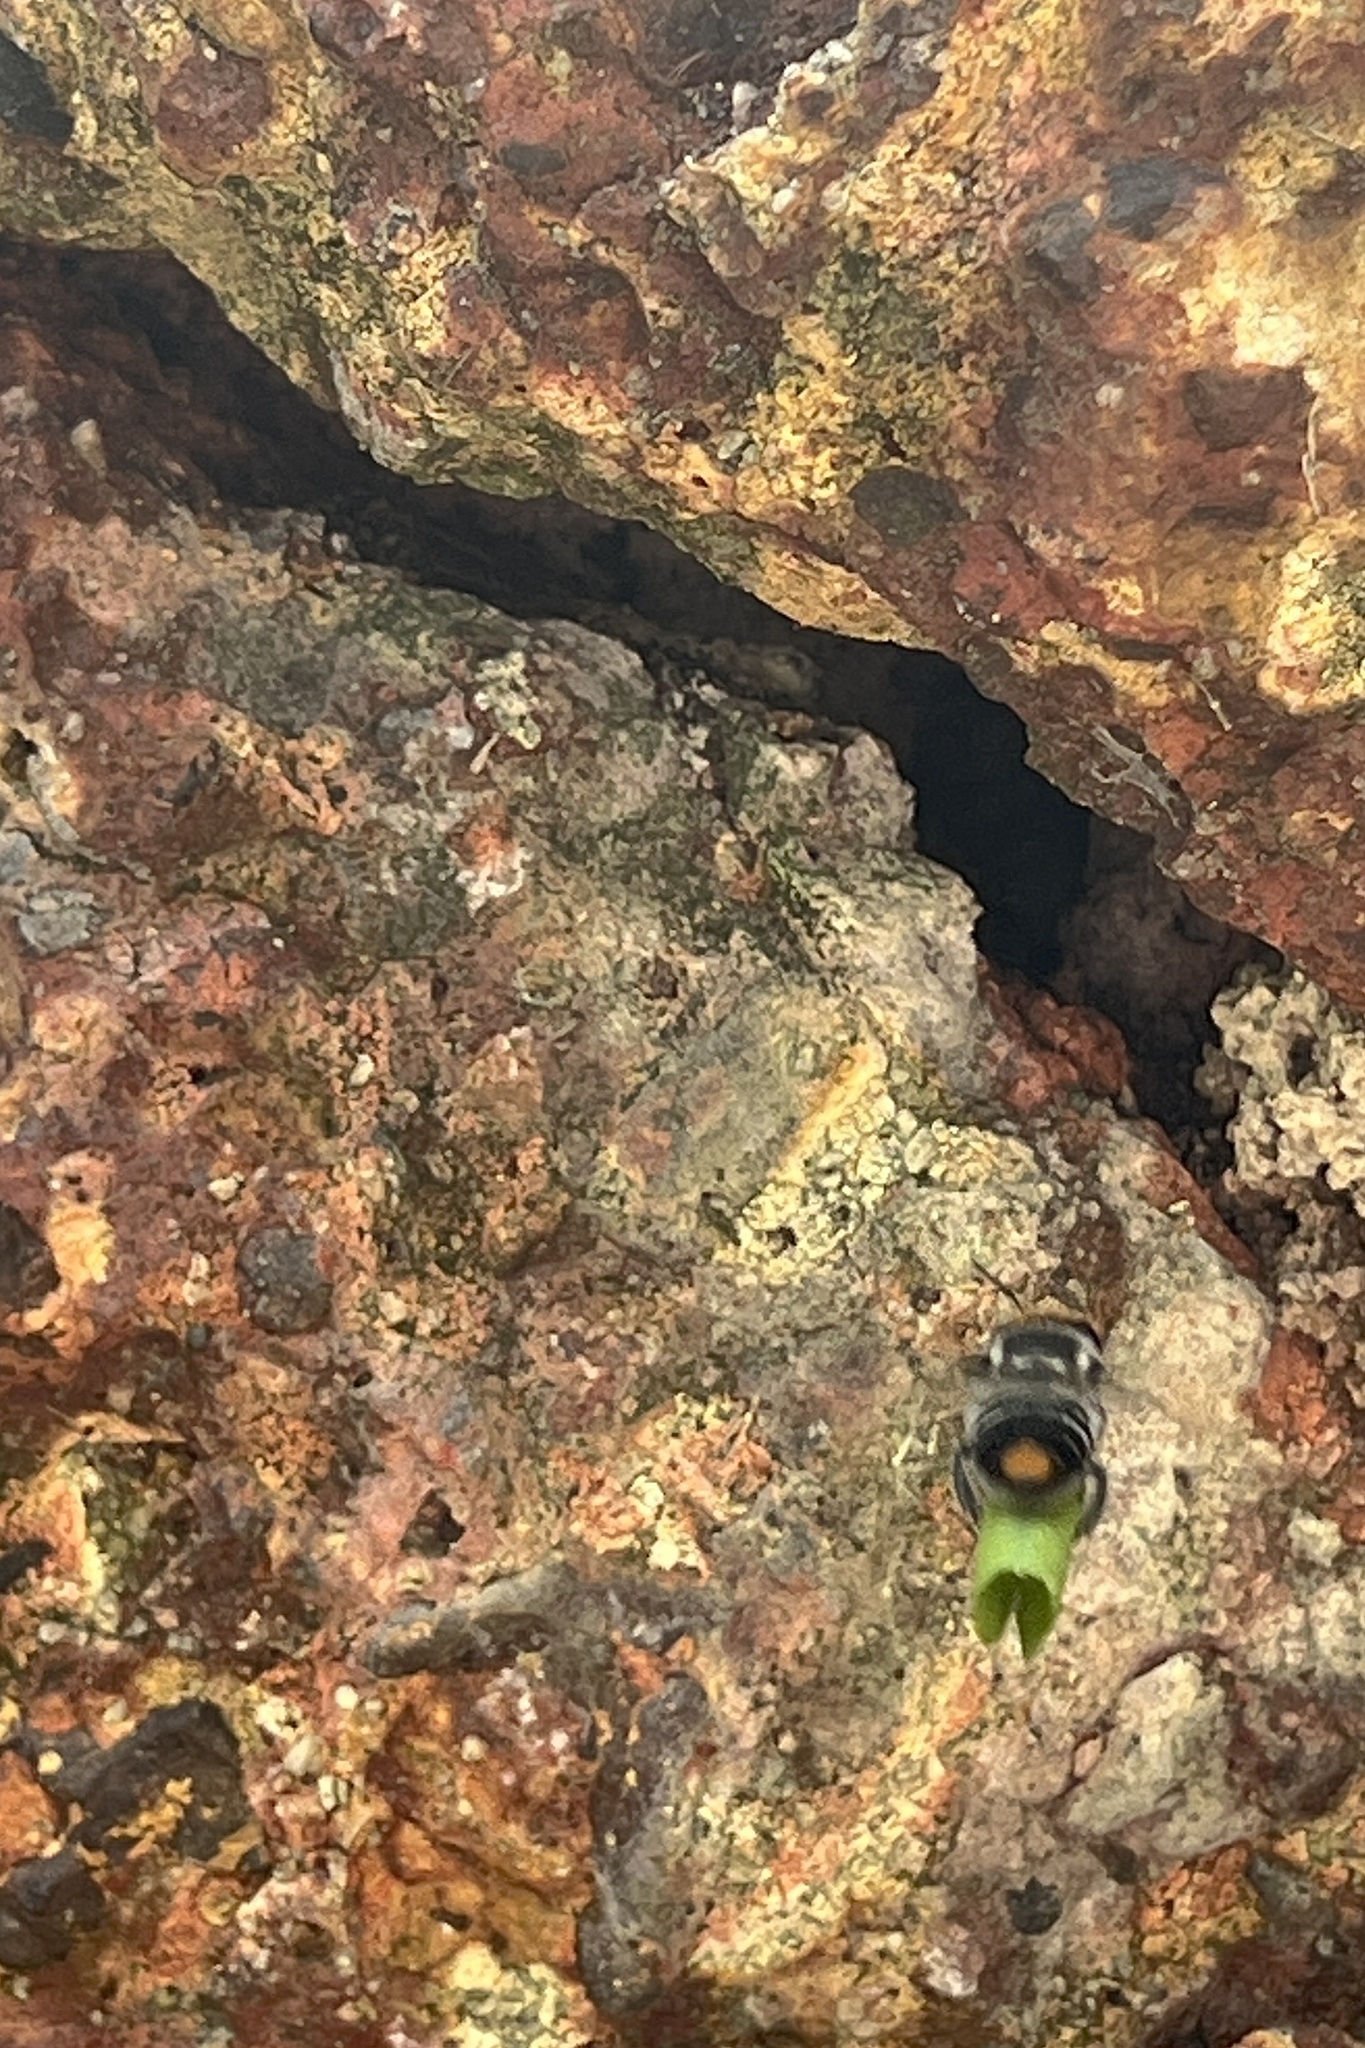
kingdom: Animalia
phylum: Arthropoda
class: Insecta
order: Hymenoptera
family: Megachilidae
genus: Megachile
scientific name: Megachile chrysopyga
